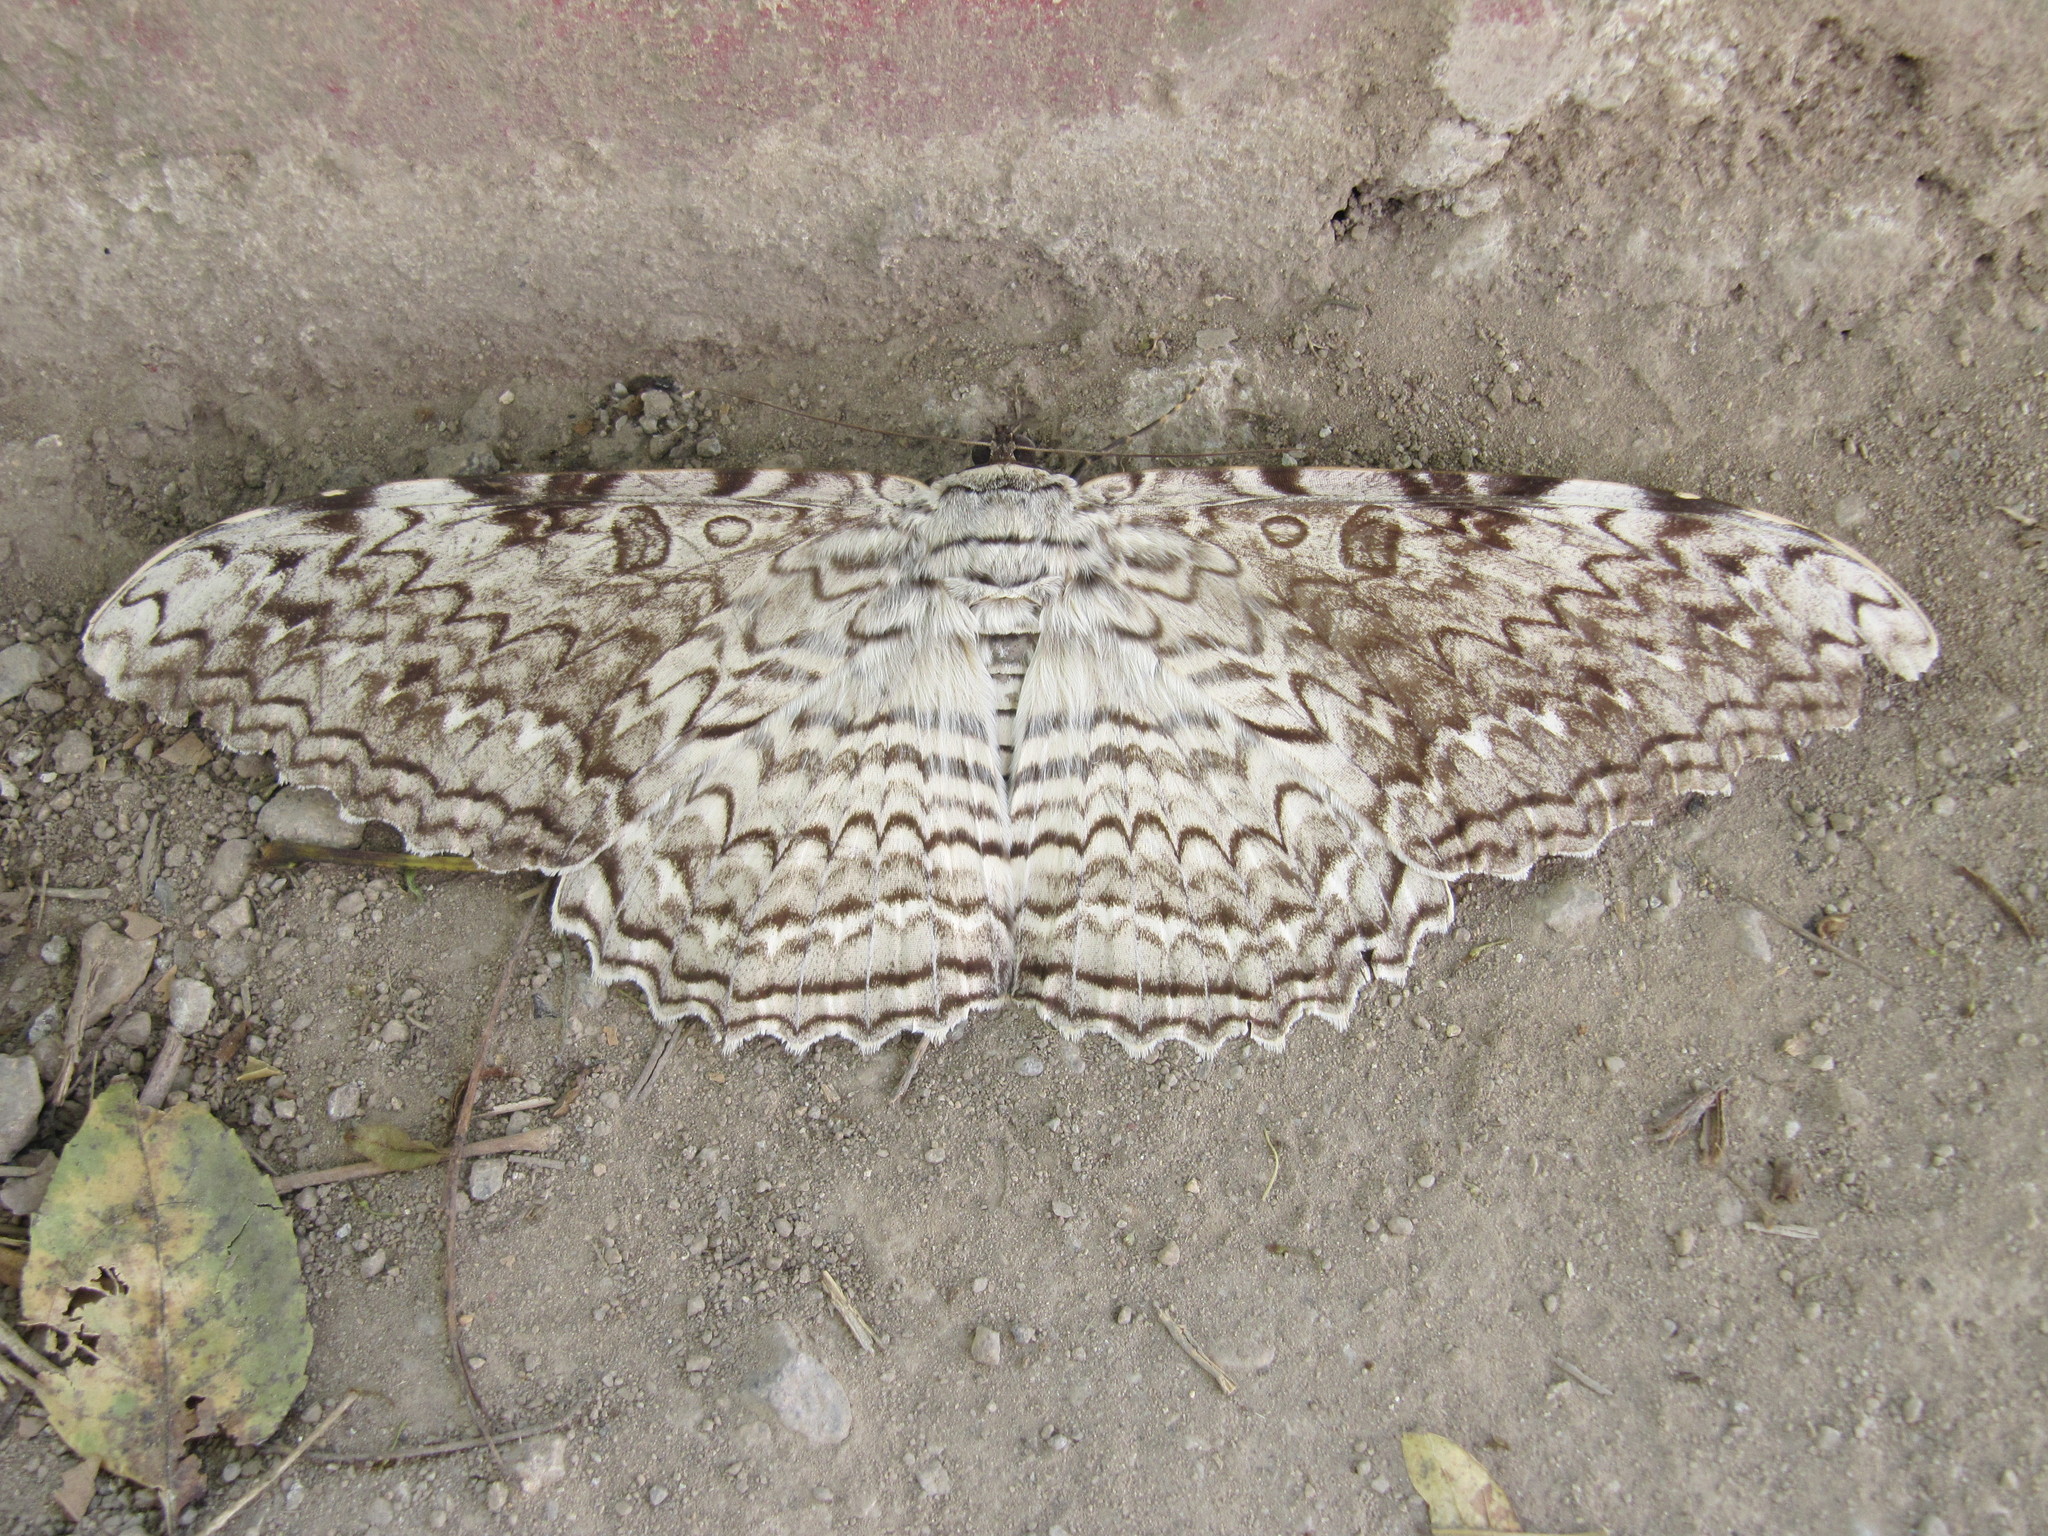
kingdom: Animalia
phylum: Arthropoda
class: Insecta
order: Lepidoptera
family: Erebidae
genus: Thysania
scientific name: Thysania agrippina
